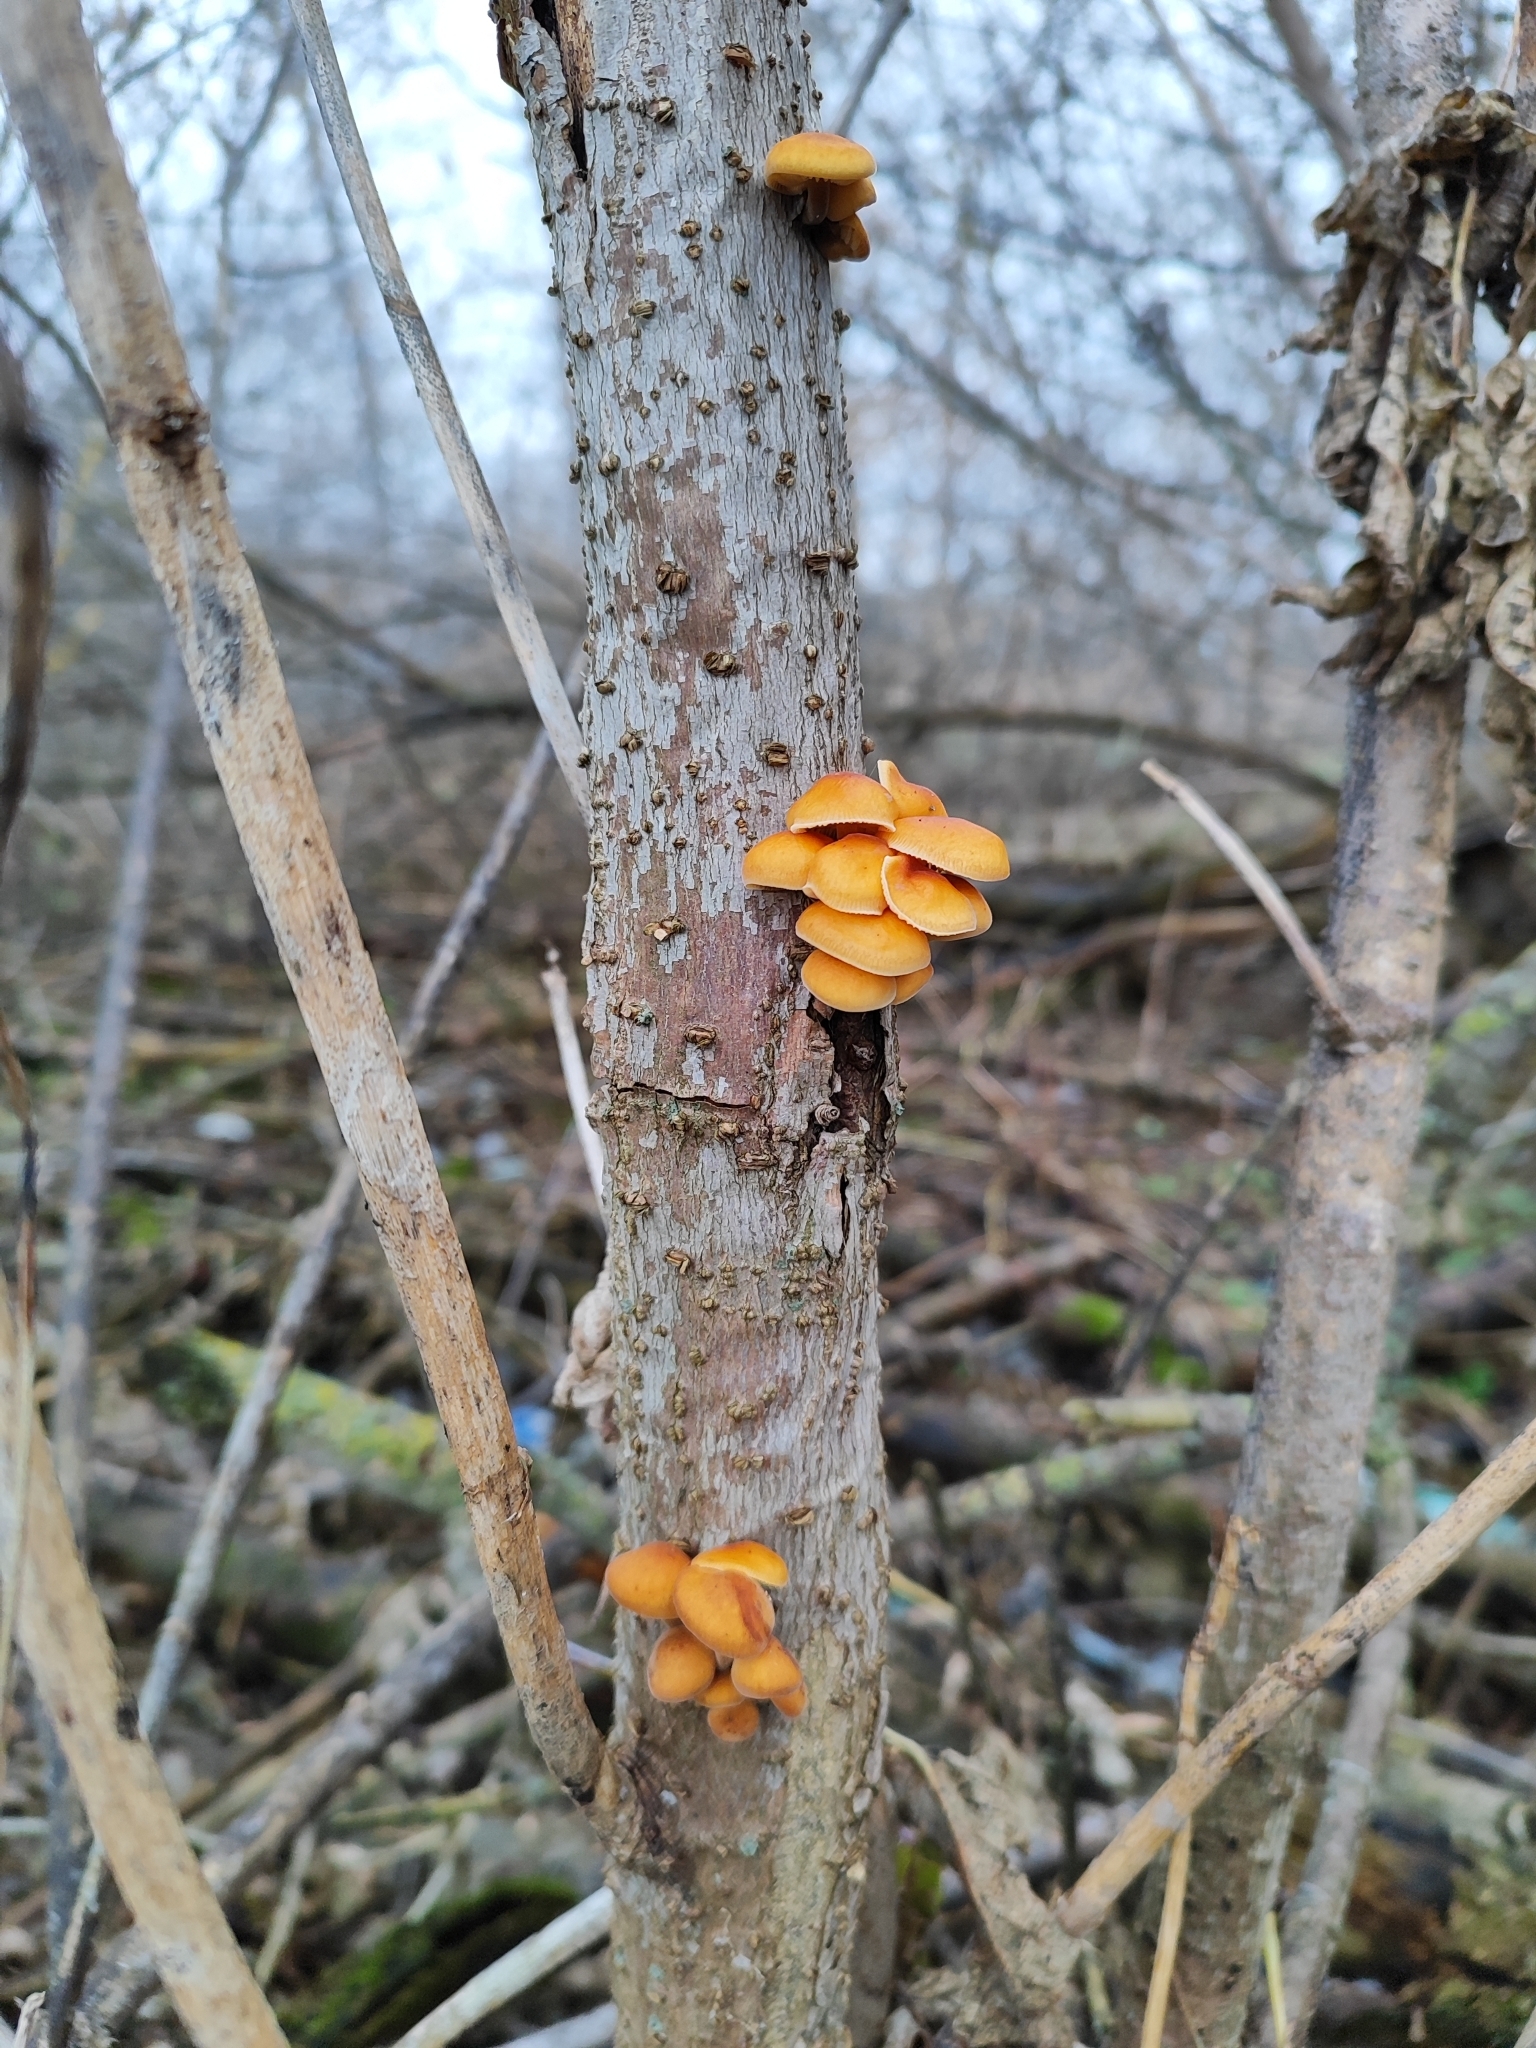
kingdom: Fungi
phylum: Basidiomycota
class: Agaricomycetes
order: Agaricales
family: Physalacriaceae
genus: Flammulina
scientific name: Flammulina
